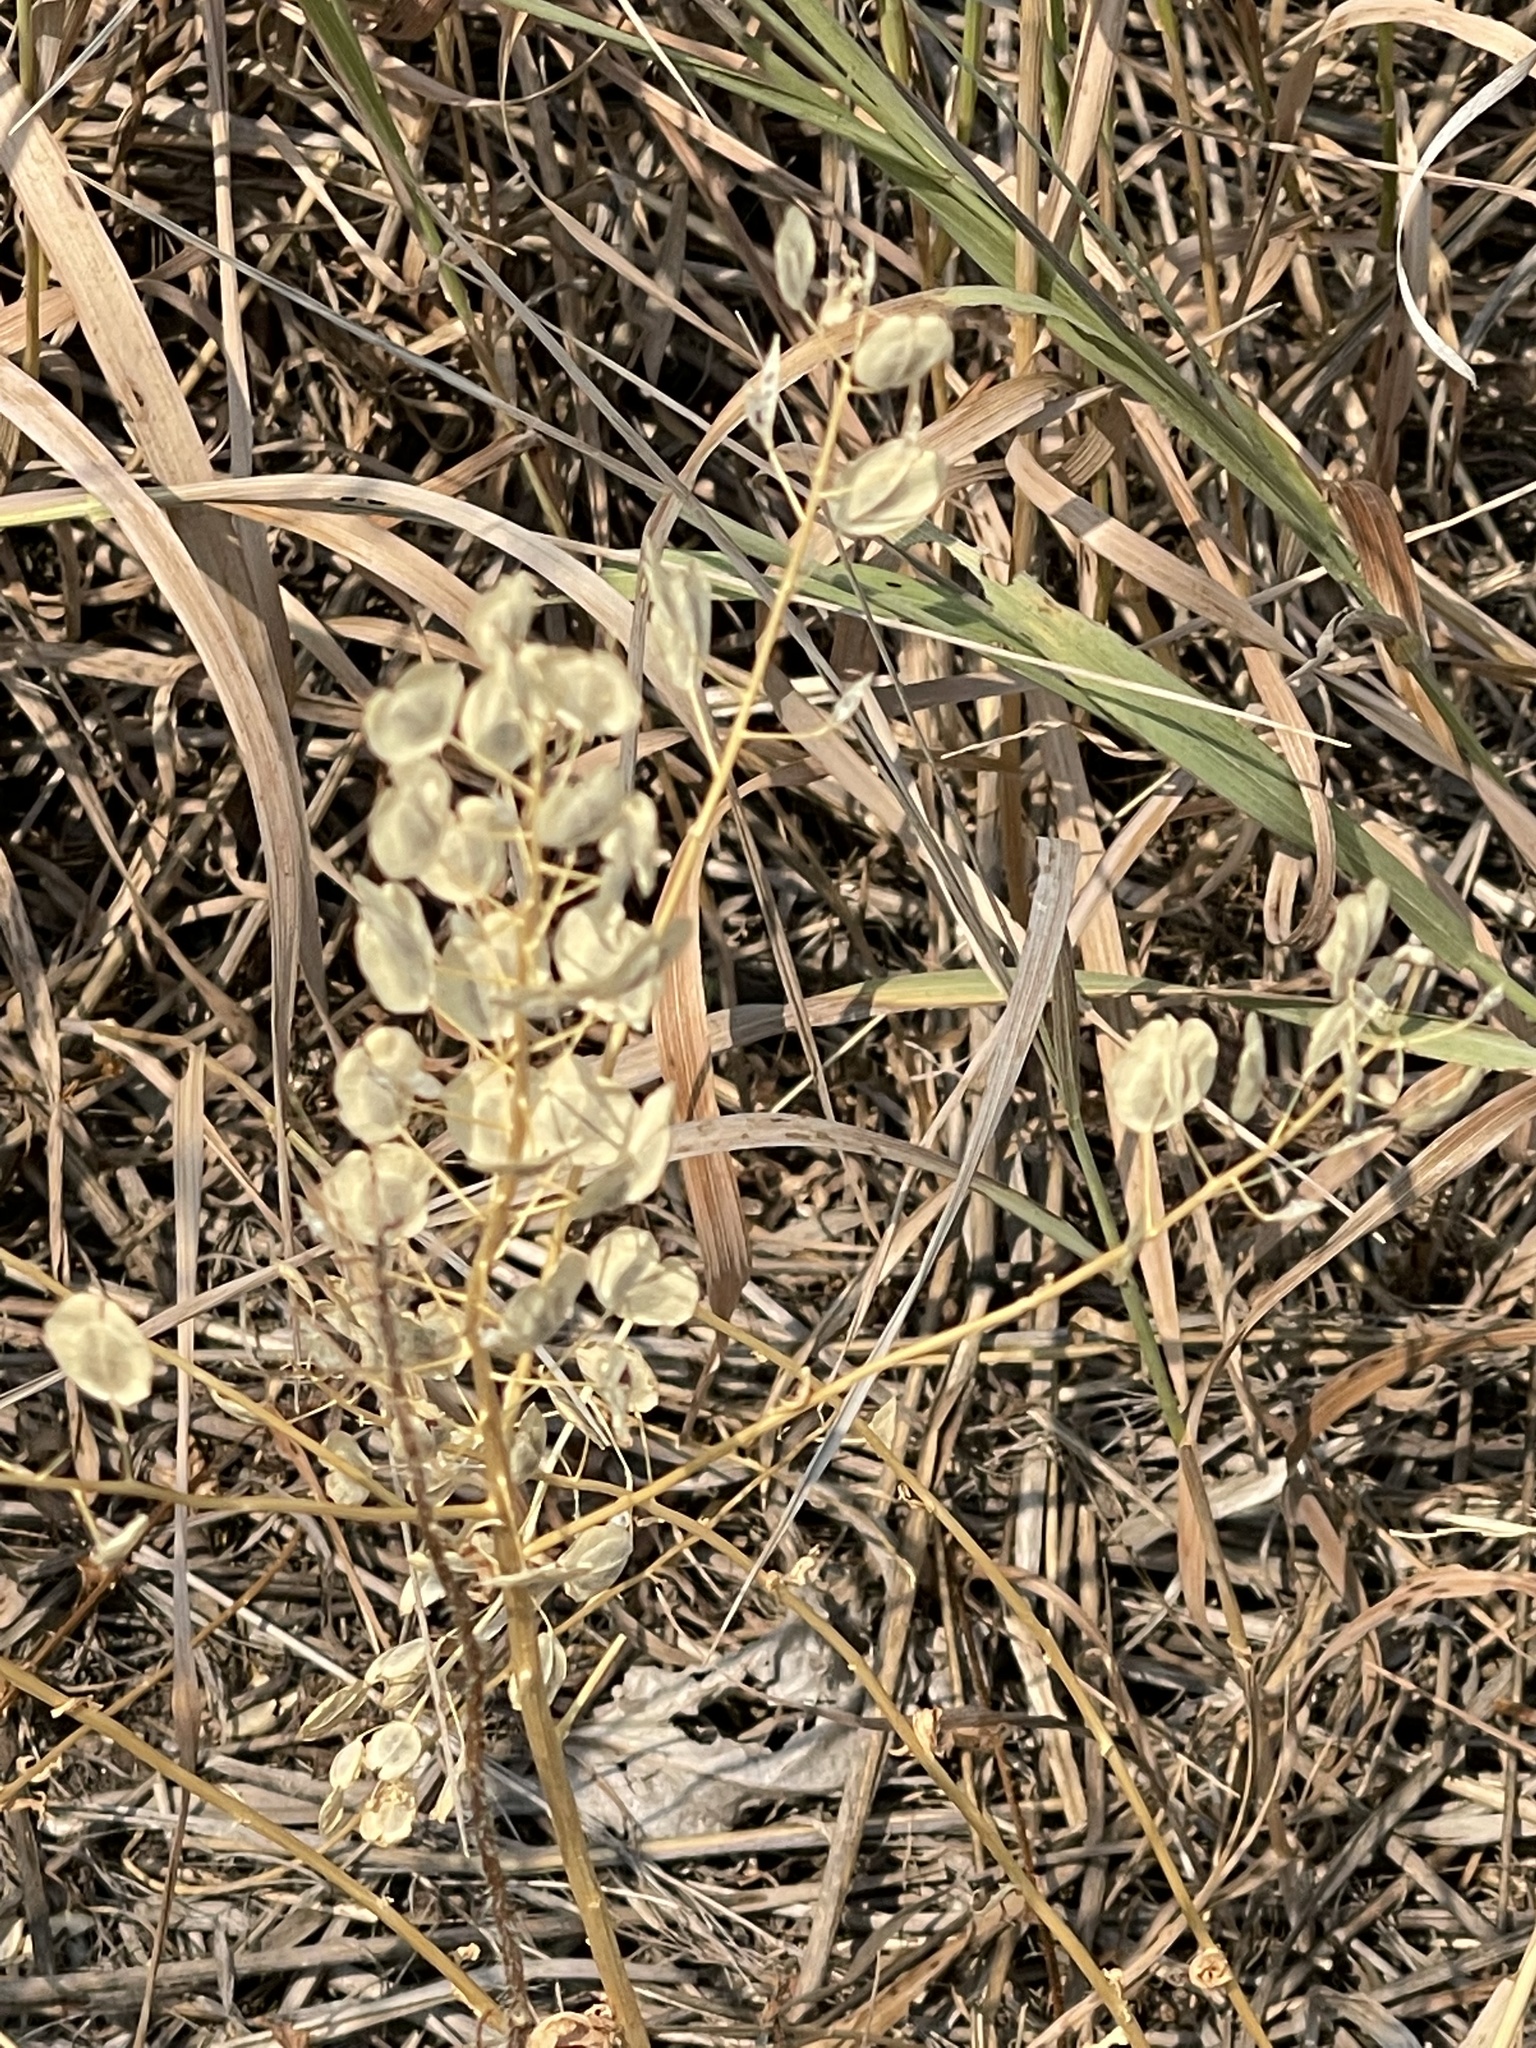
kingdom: Plantae
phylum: Tracheophyta
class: Magnoliopsida
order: Brassicales
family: Brassicaceae
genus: Thlaspi
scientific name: Thlaspi arvense
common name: Field pennycress
